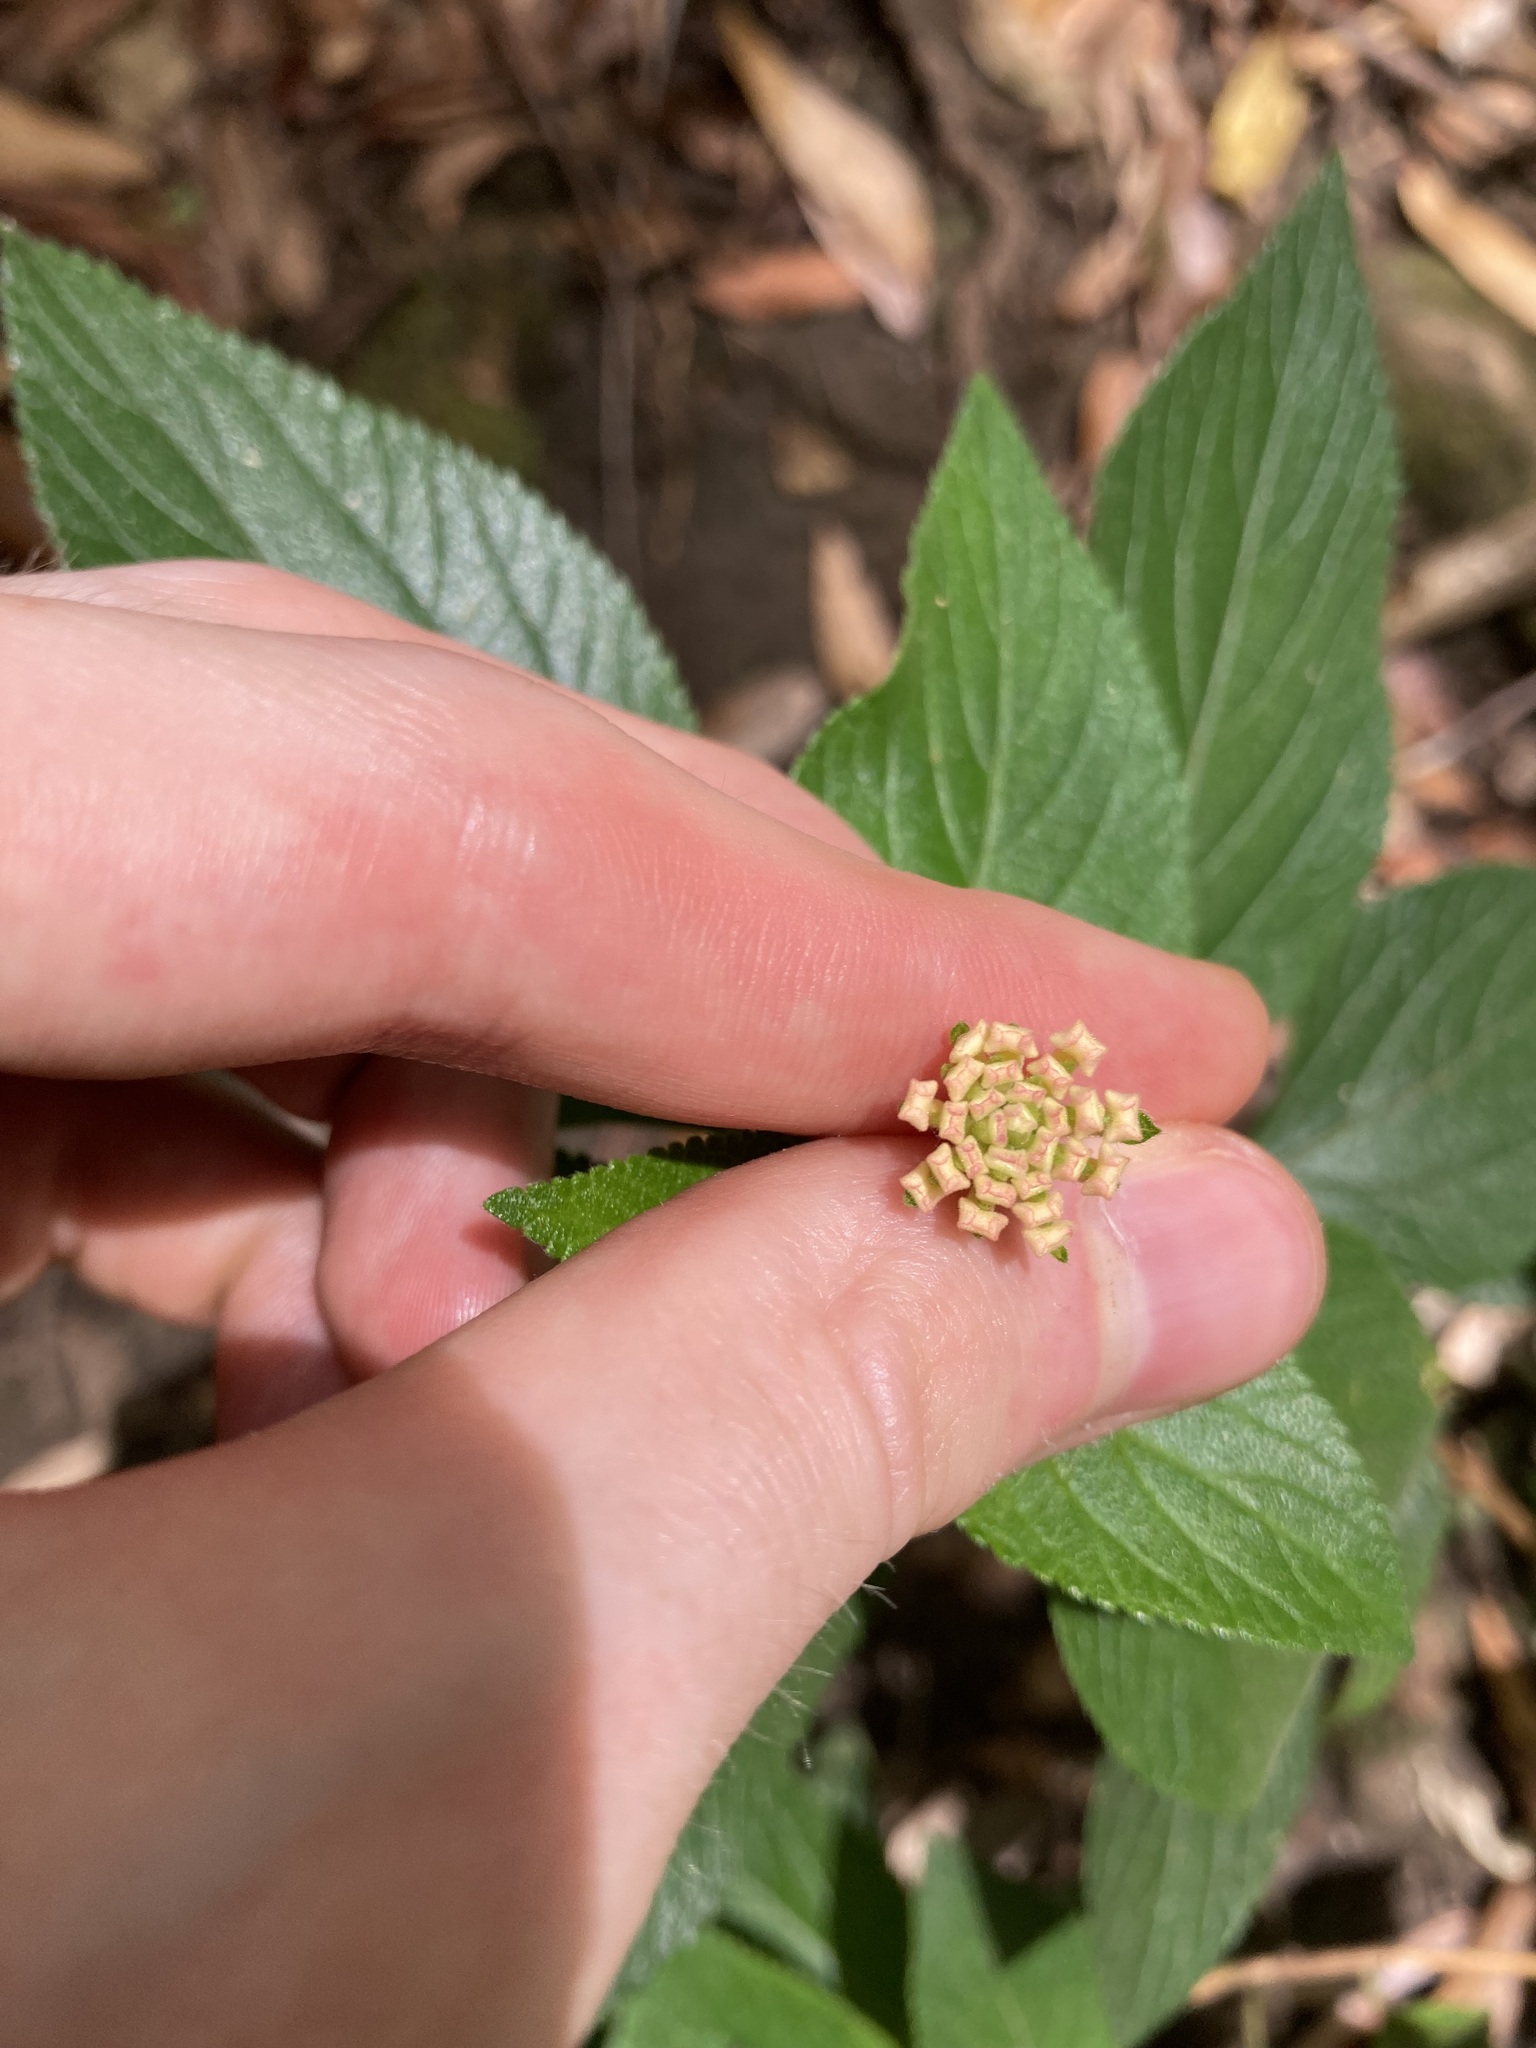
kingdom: Plantae
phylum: Tracheophyta
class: Magnoliopsida
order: Lamiales
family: Verbenaceae
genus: Lantana
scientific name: Lantana camara
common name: Lantana
